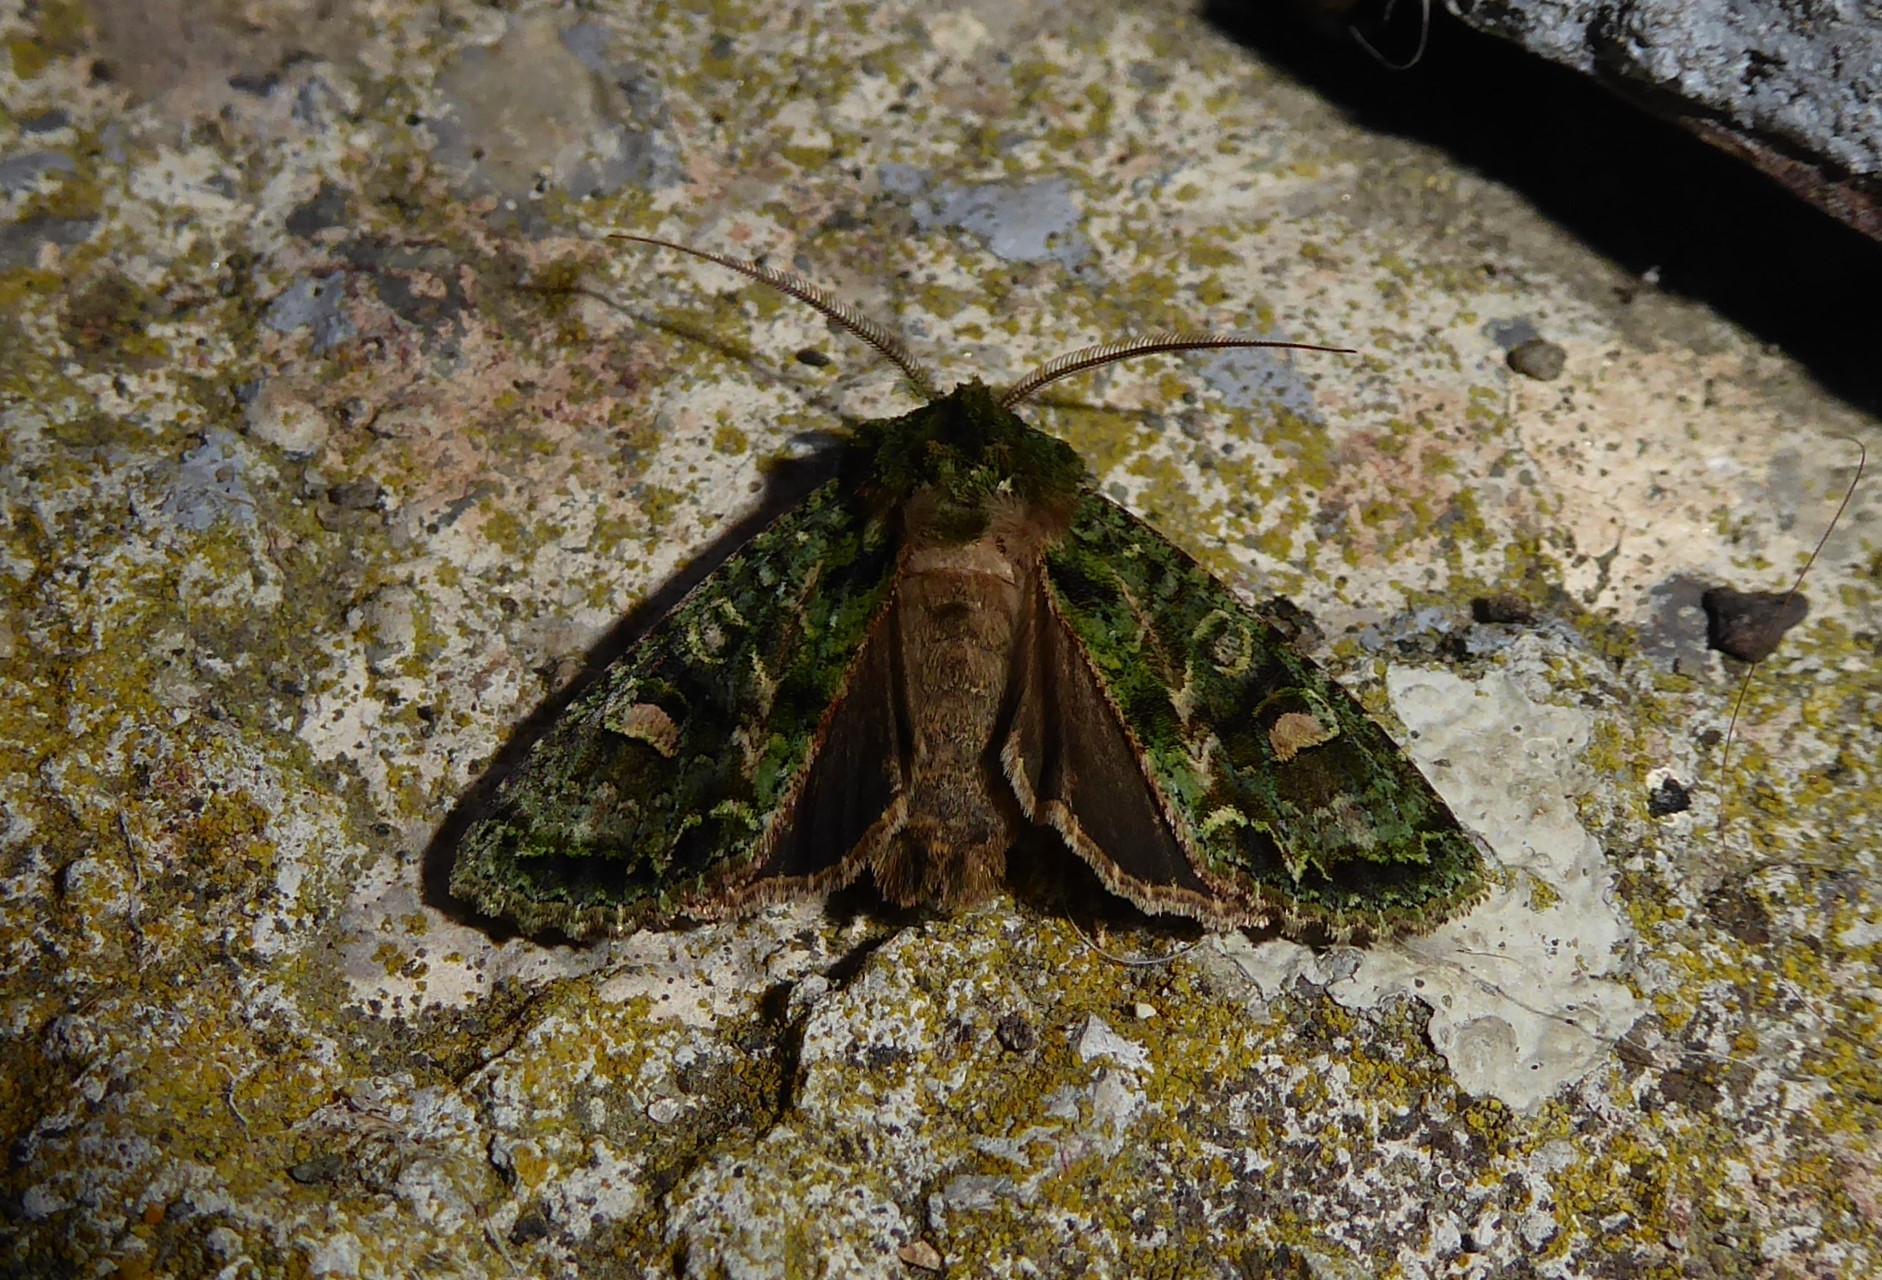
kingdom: Animalia
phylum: Arthropoda
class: Insecta
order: Lepidoptera
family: Noctuidae
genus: Ichneutica
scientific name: Ichneutica
